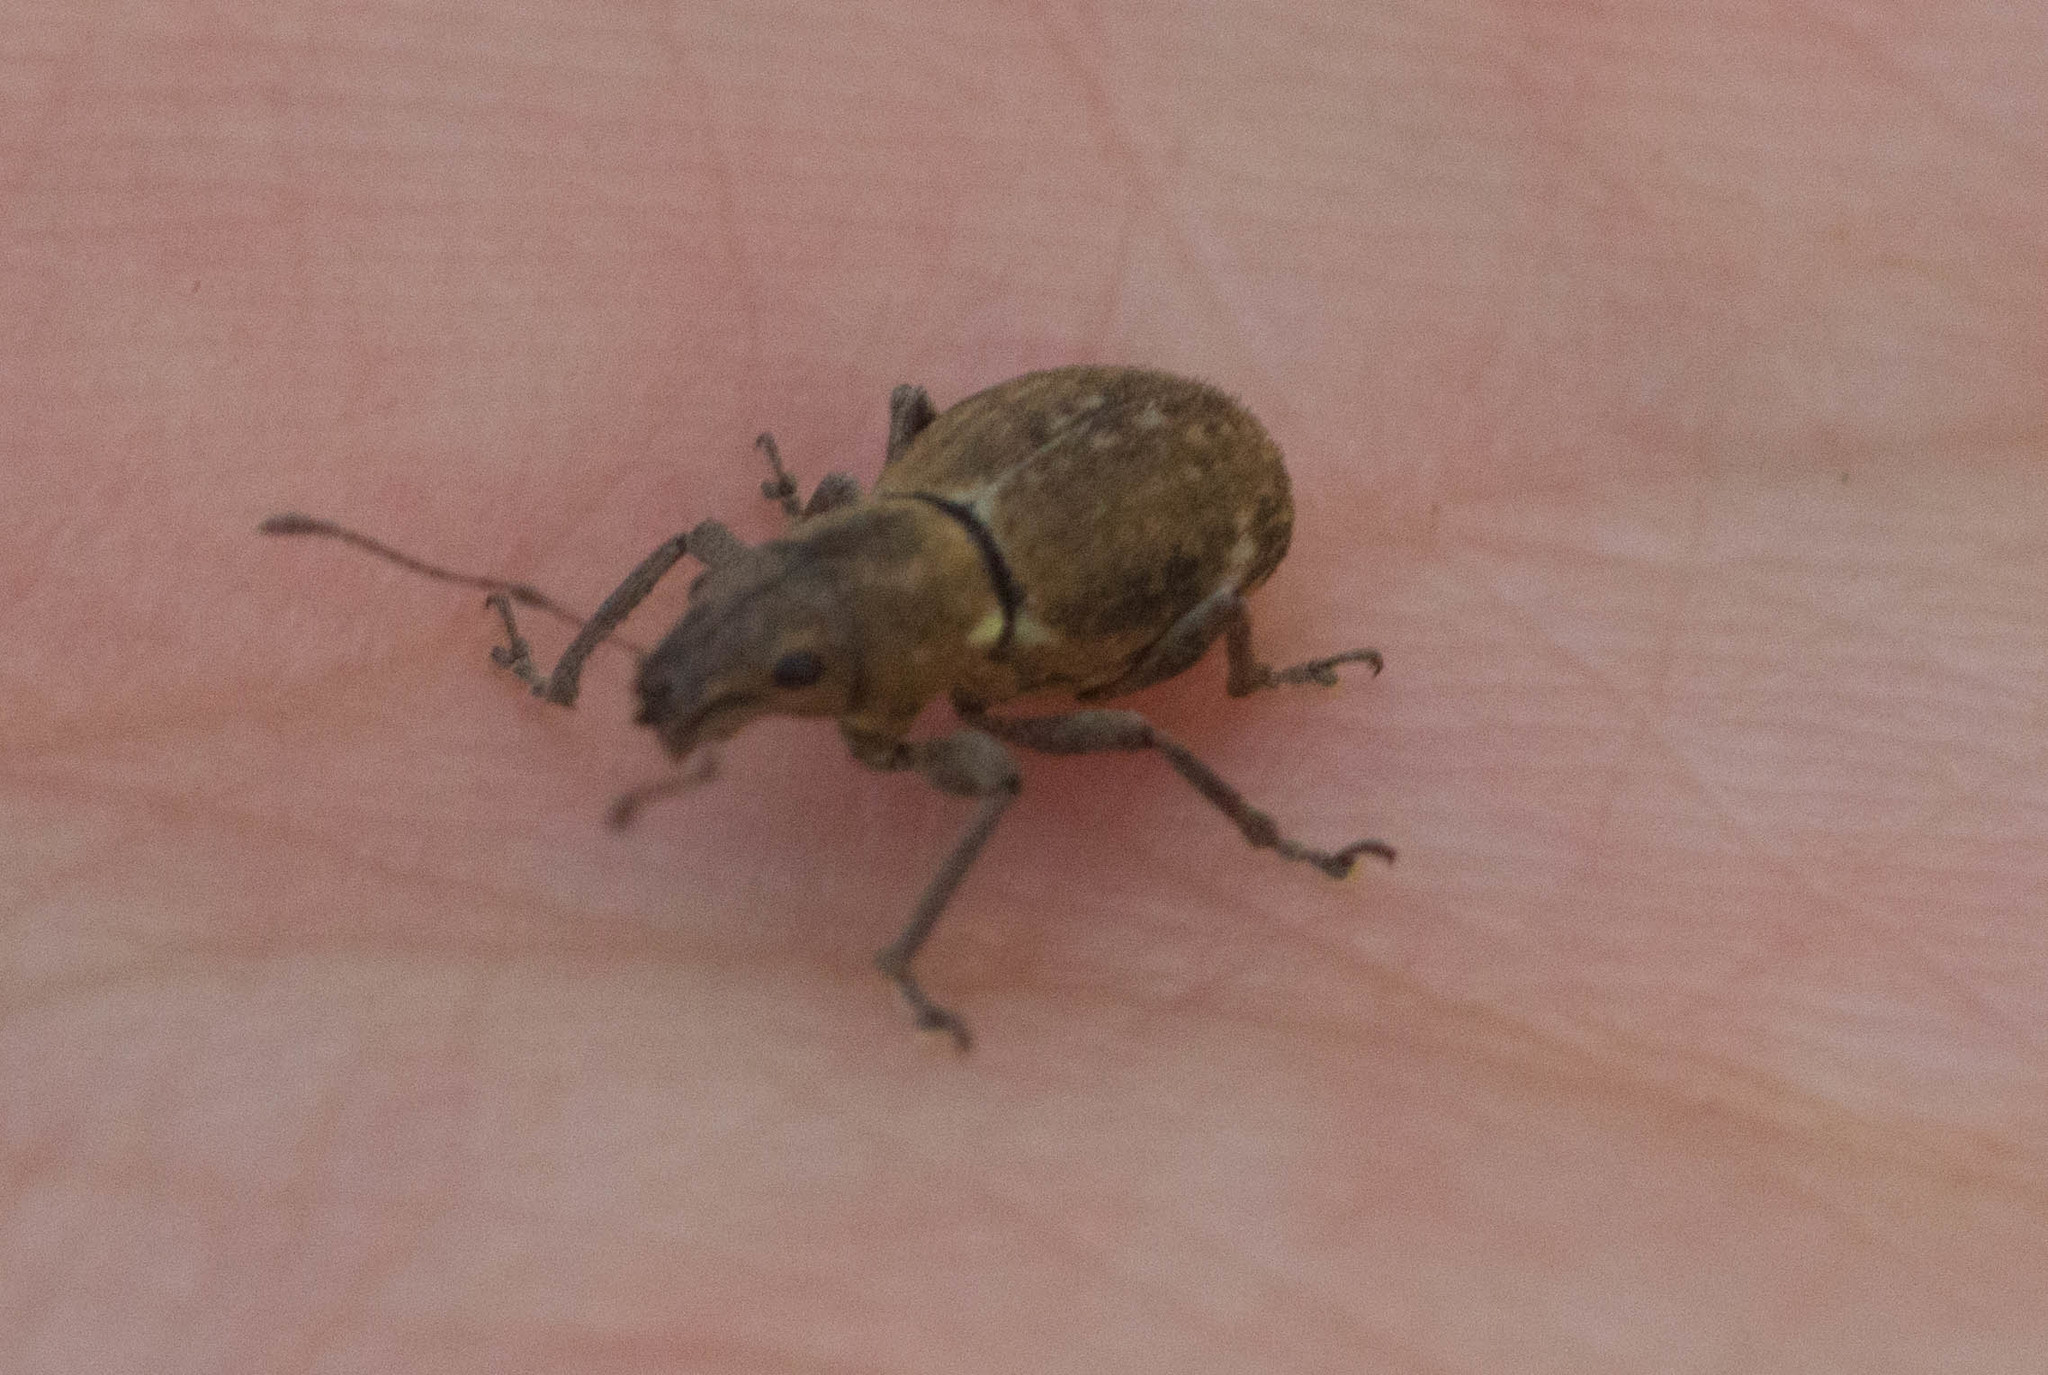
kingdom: Animalia
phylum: Arthropoda
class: Insecta
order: Coleoptera
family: Curculionidae
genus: Naupactus
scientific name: Naupactus cervinus
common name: Fuller rose beetle
